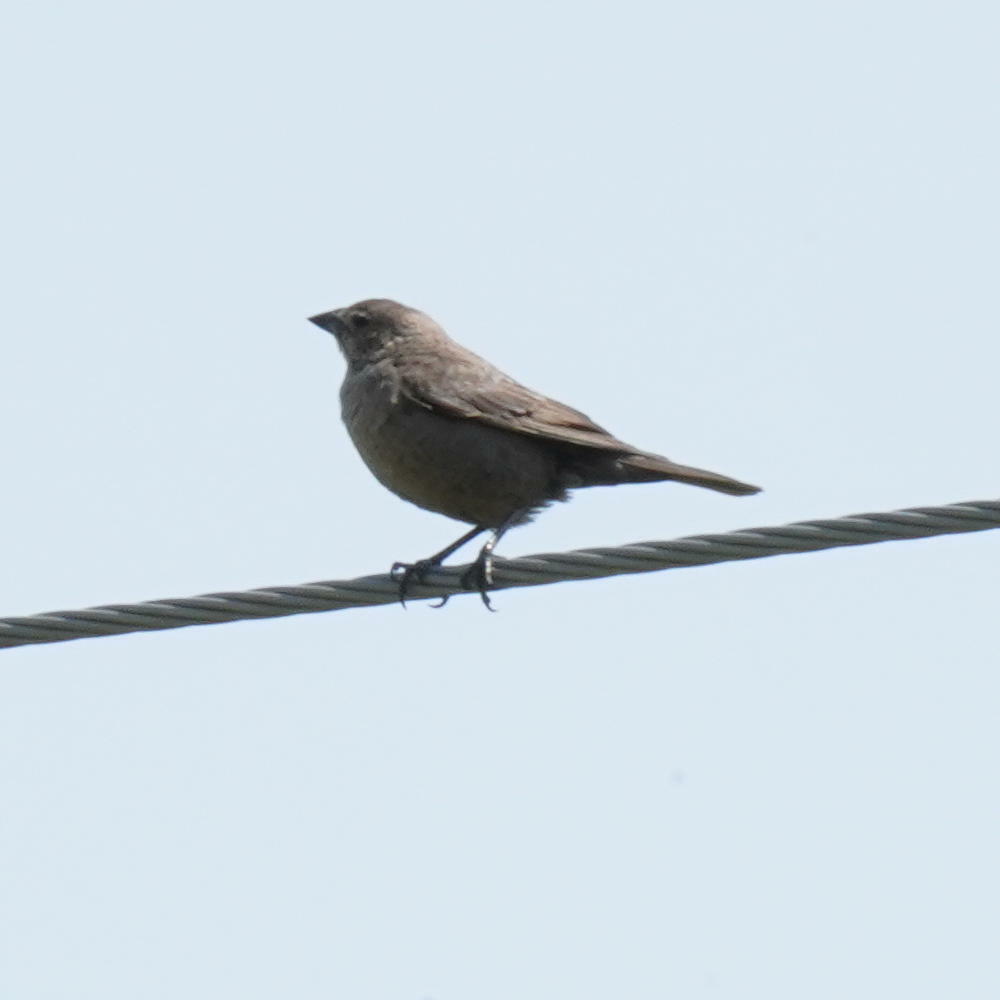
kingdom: Animalia
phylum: Chordata
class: Aves
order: Passeriformes
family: Icteridae
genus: Molothrus
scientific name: Molothrus ater
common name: Brown-headed cowbird
